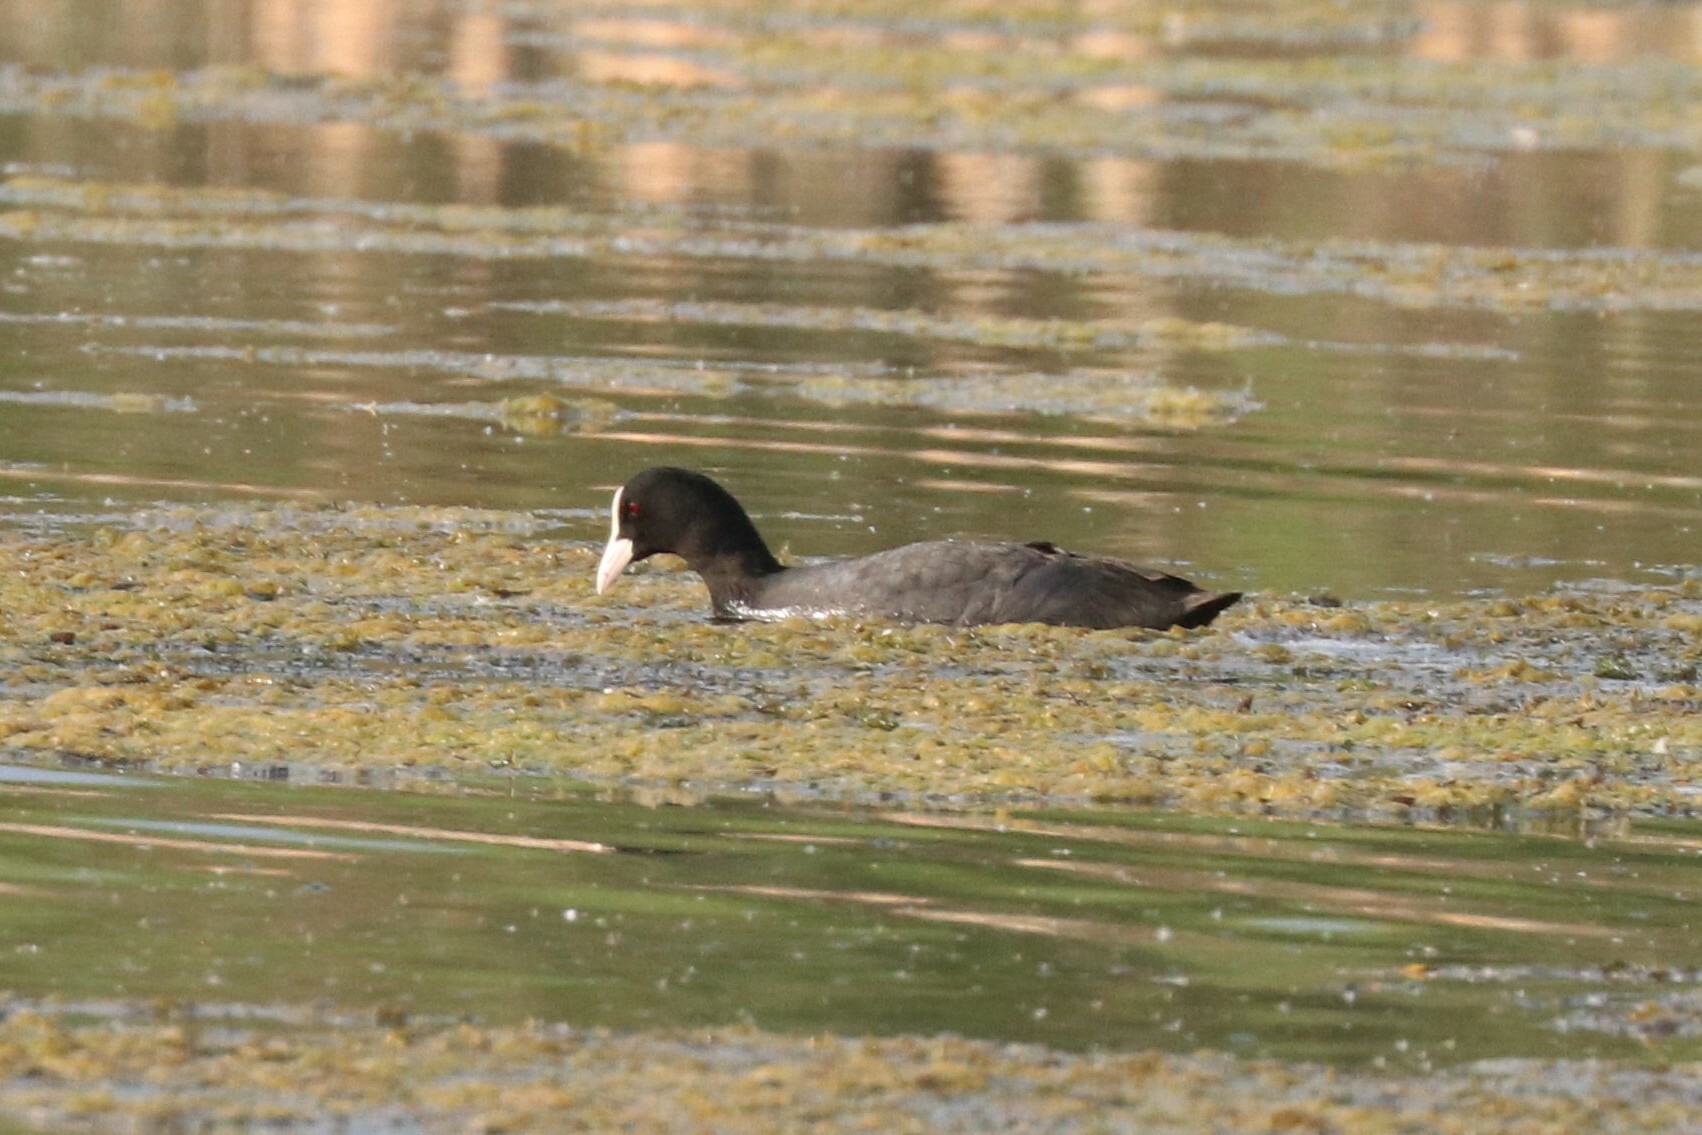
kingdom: Animalia
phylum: Chordata
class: Aves
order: Gruiformes
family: Rallidae
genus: Fulica
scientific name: Fulica atra
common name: Eurasian coot
